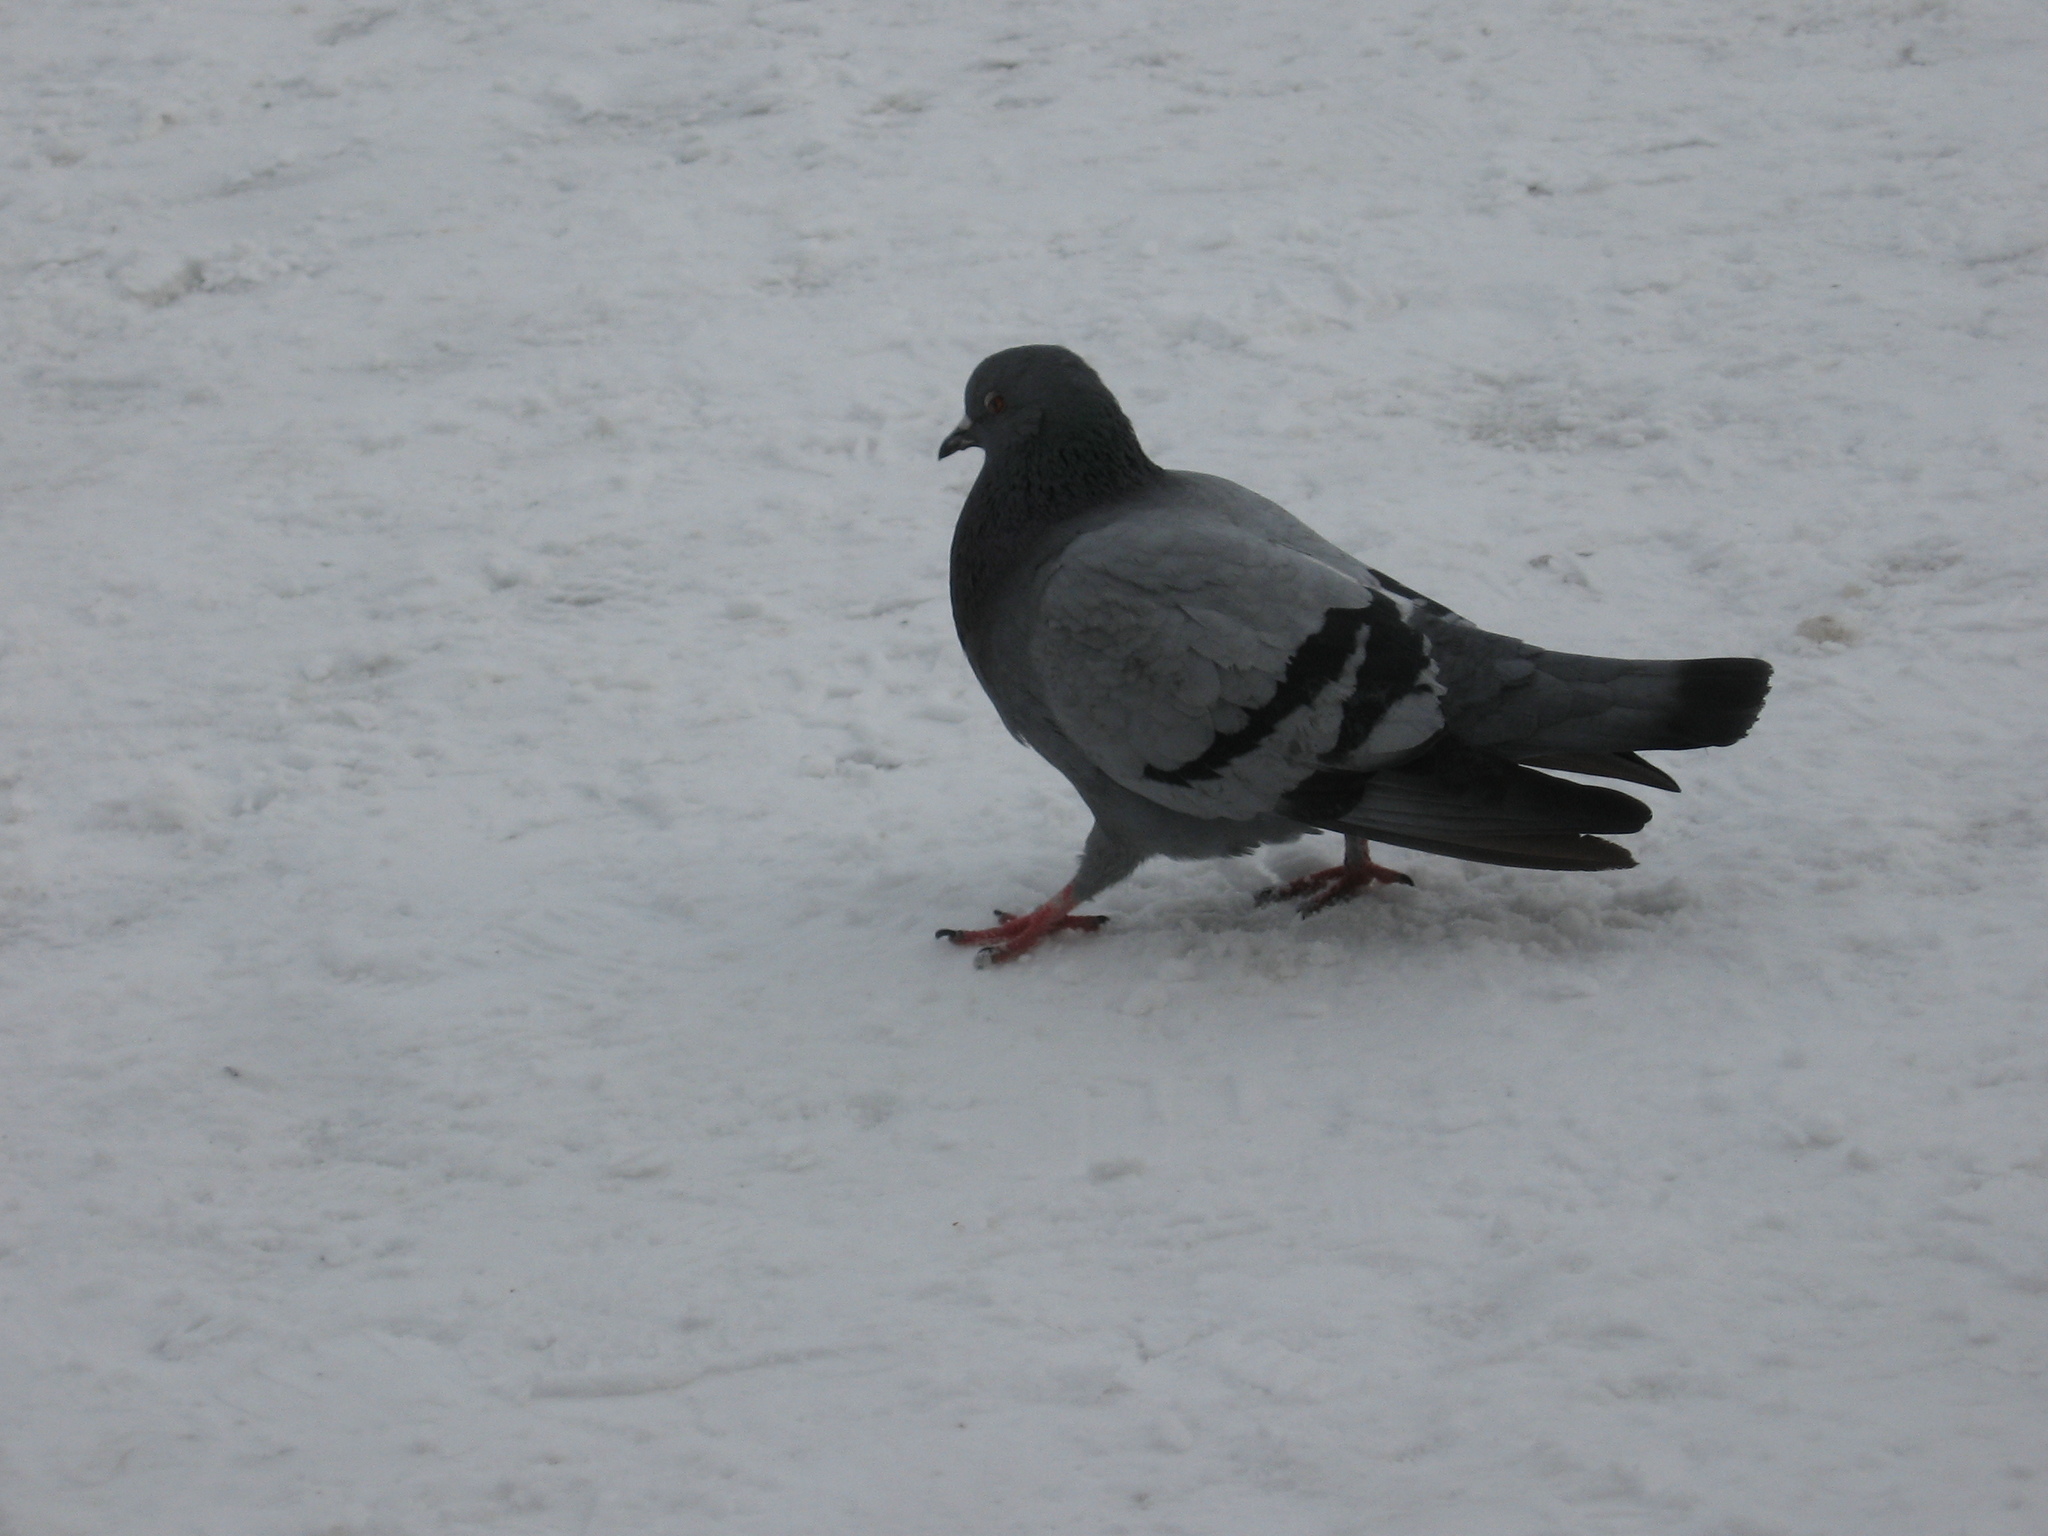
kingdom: Animalia
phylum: Chordata
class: Aves
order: Columbiformes
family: Columbidae
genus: Columba
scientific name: Columba livia
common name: Rock pigeon
